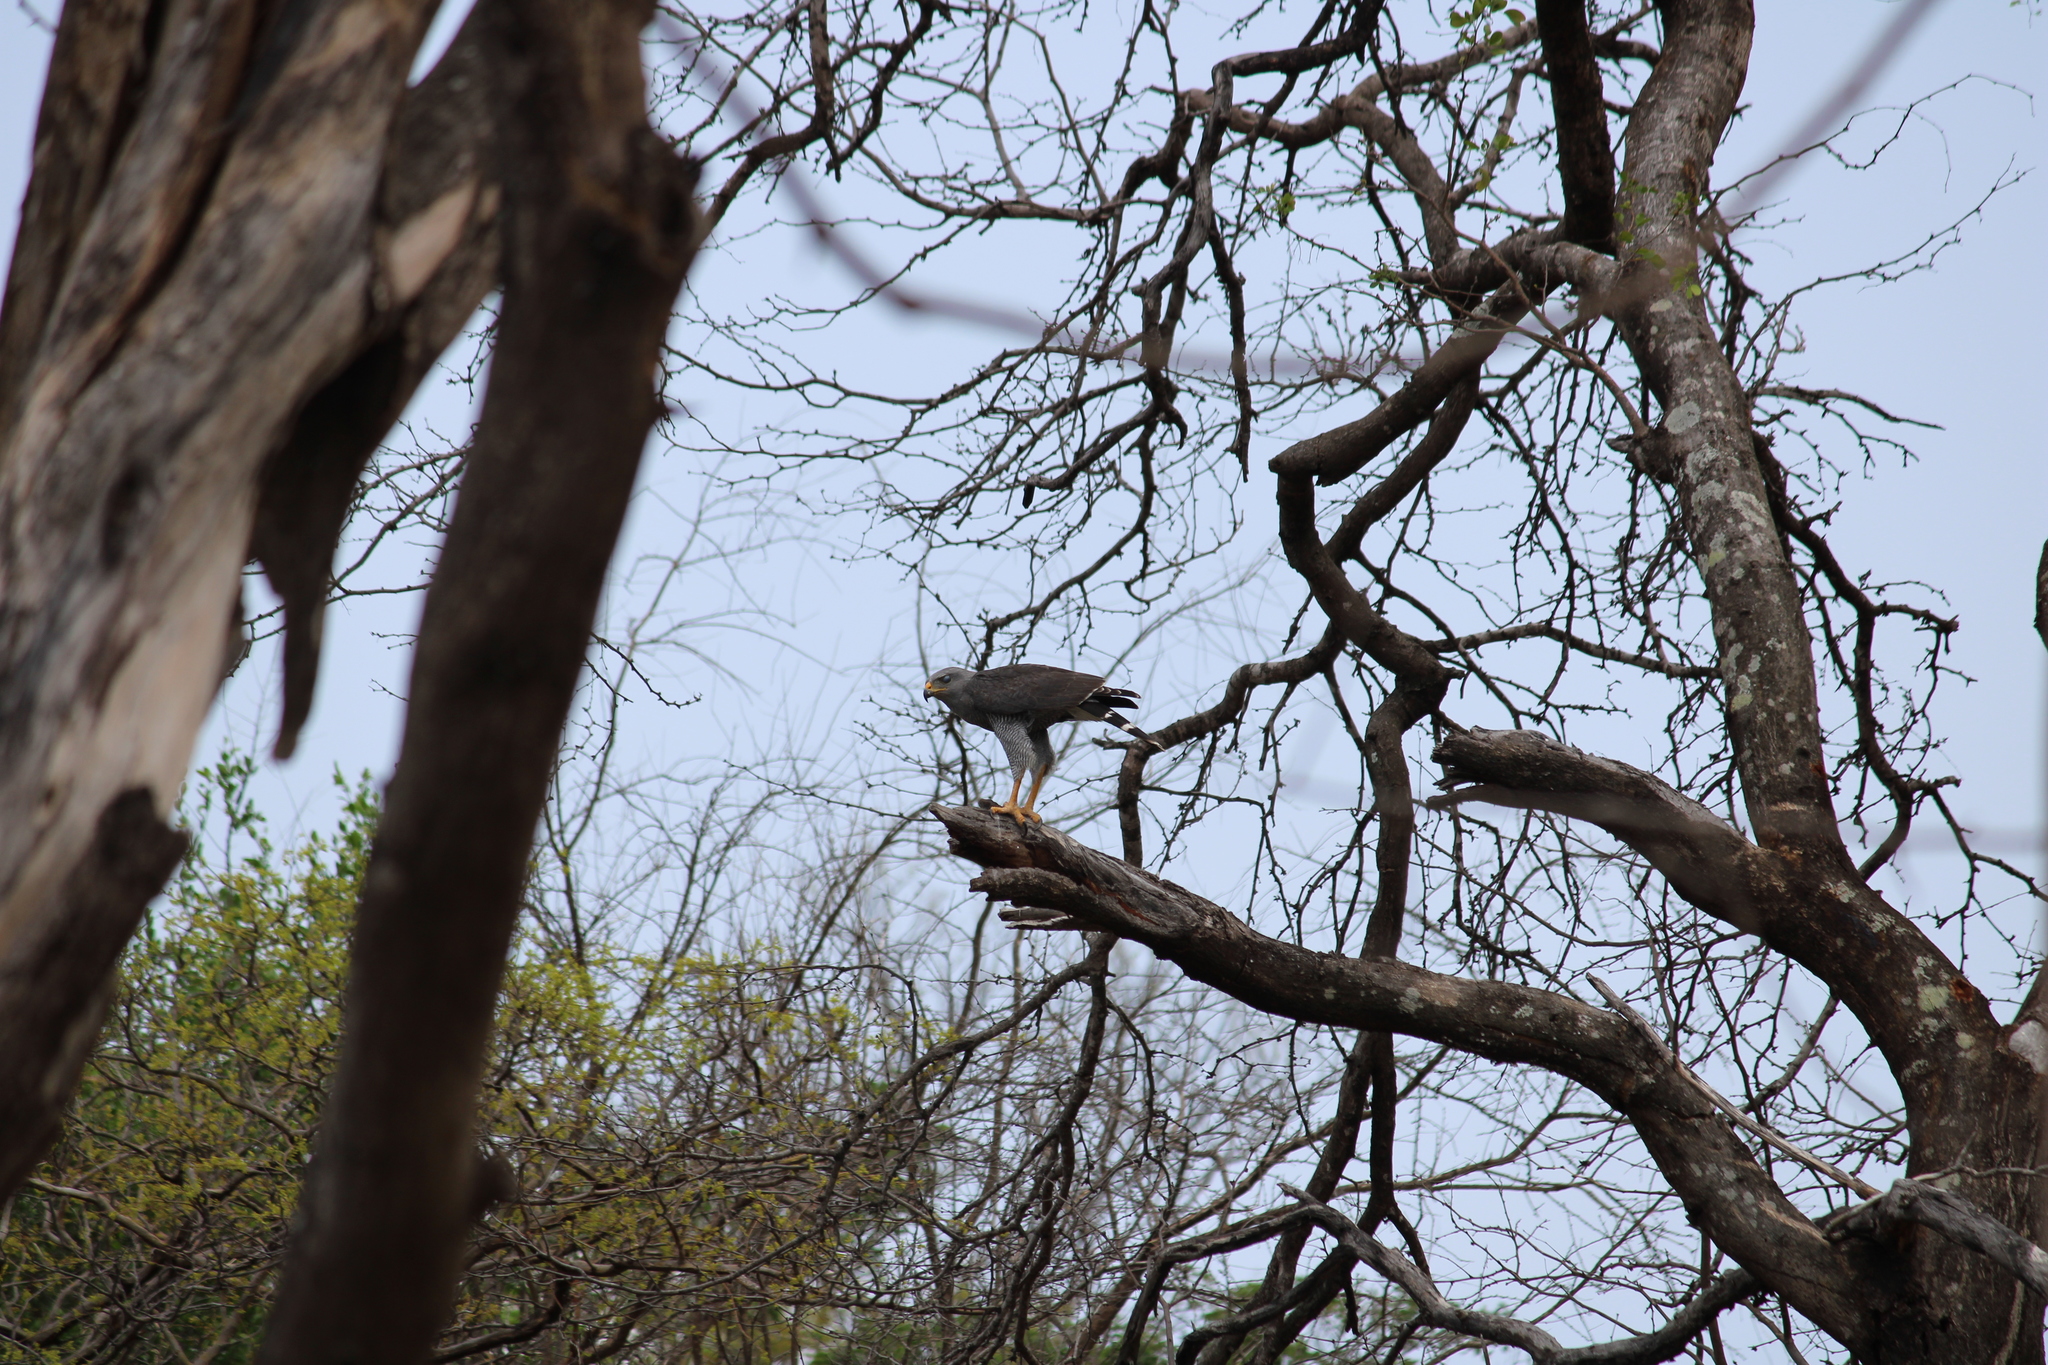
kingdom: Animalia
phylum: Chordata
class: Aves
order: Accipitriformes
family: Accipitridae
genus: Buteo
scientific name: Buteo nitidus
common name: Grey-lined hawk
